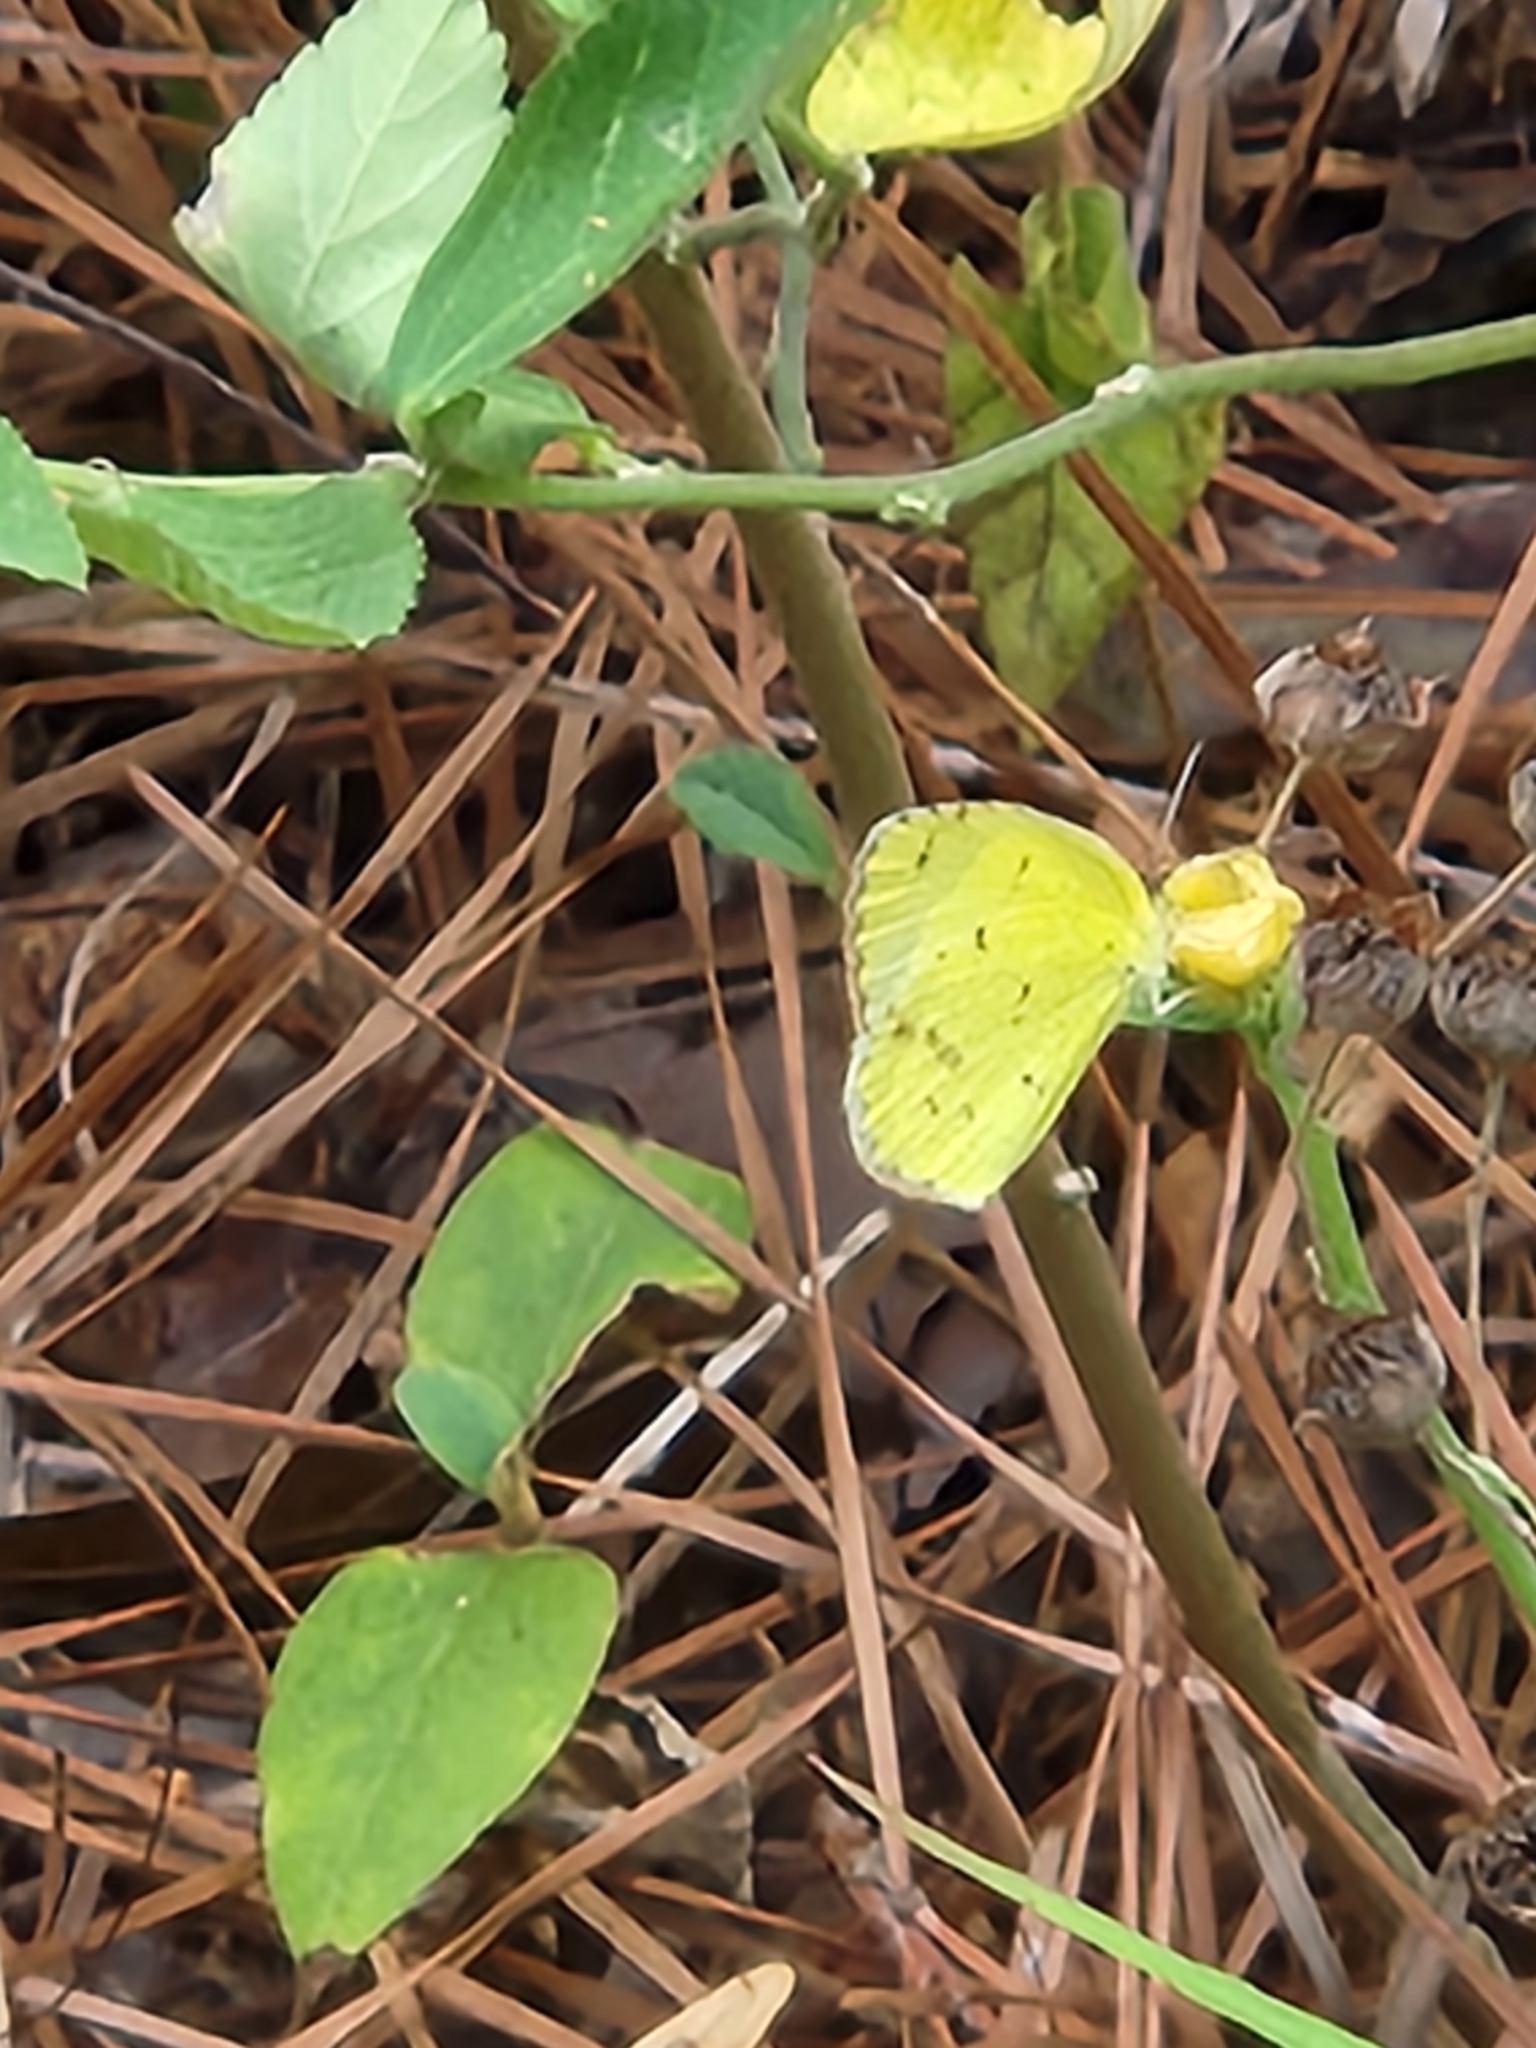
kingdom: Animalia
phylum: Arthropoda
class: Insecta
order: Lepidoptera
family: Pieridae
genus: Pyrisitia
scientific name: Pyrisitia lisa
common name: Little yellow
